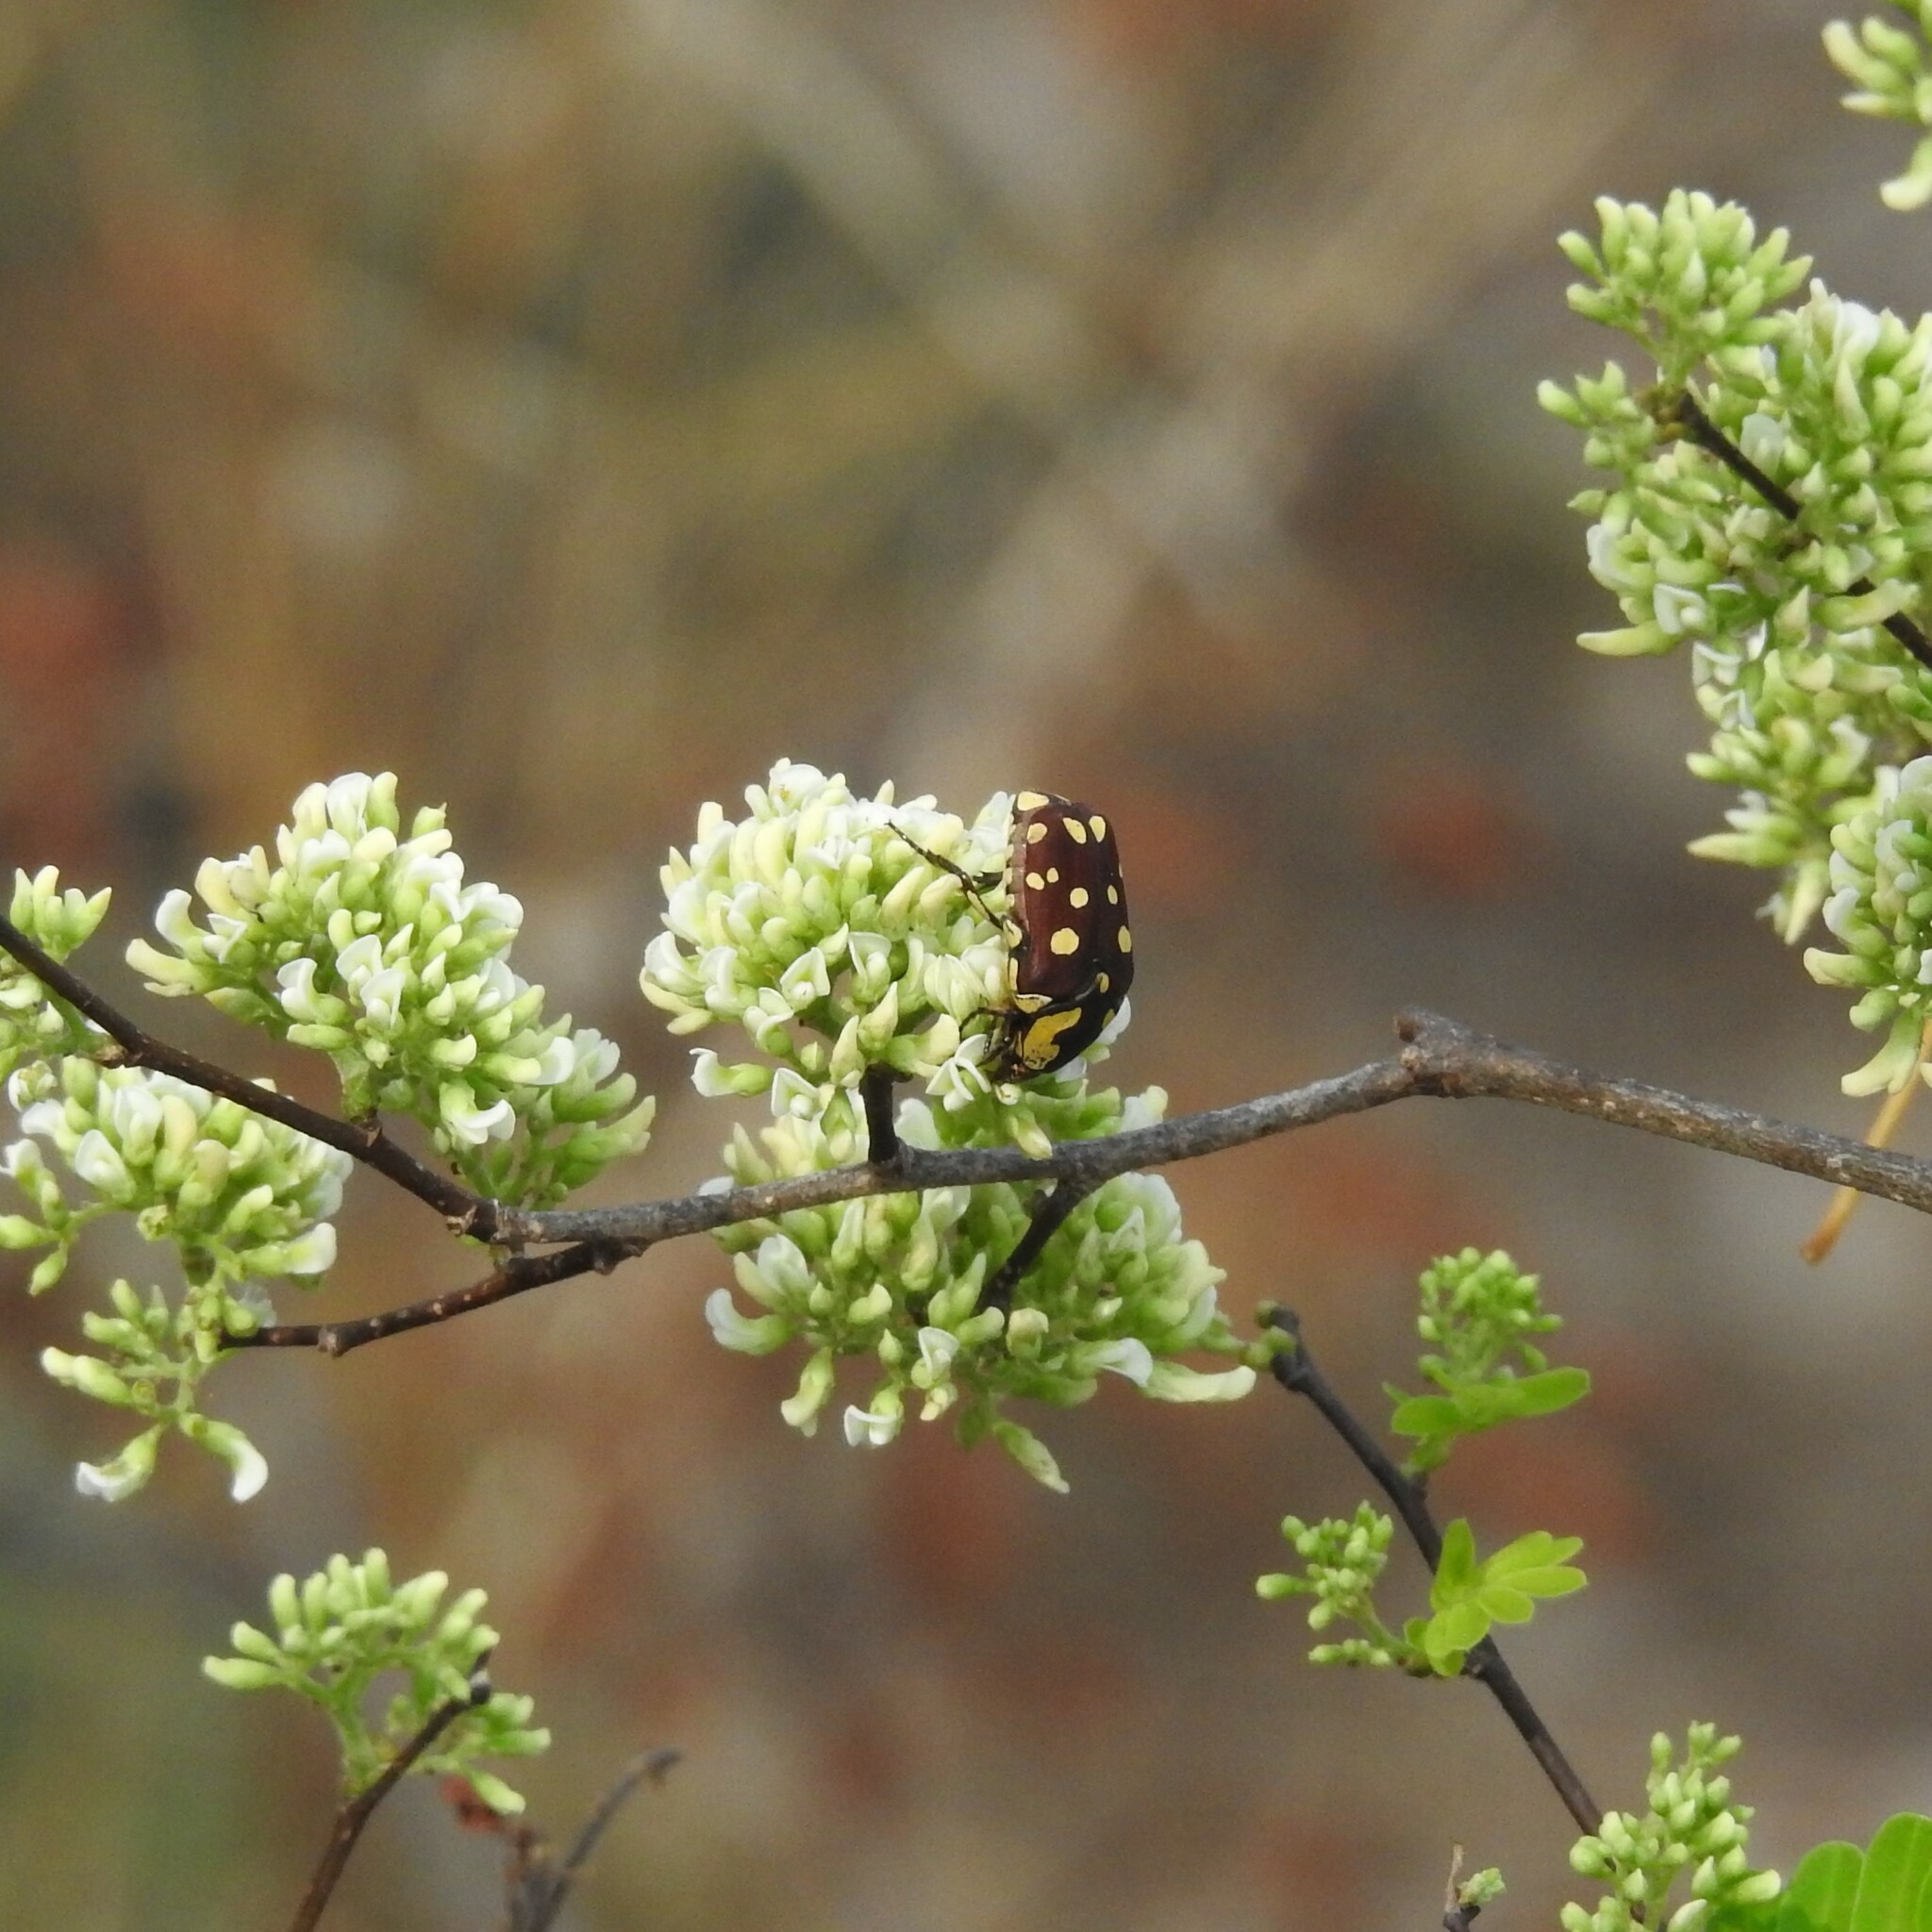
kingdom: Animalia
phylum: Arthropoda
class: Insecta
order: Coleoptera
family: Scarabaeidae
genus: Clinteria
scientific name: Clinteria klugi
